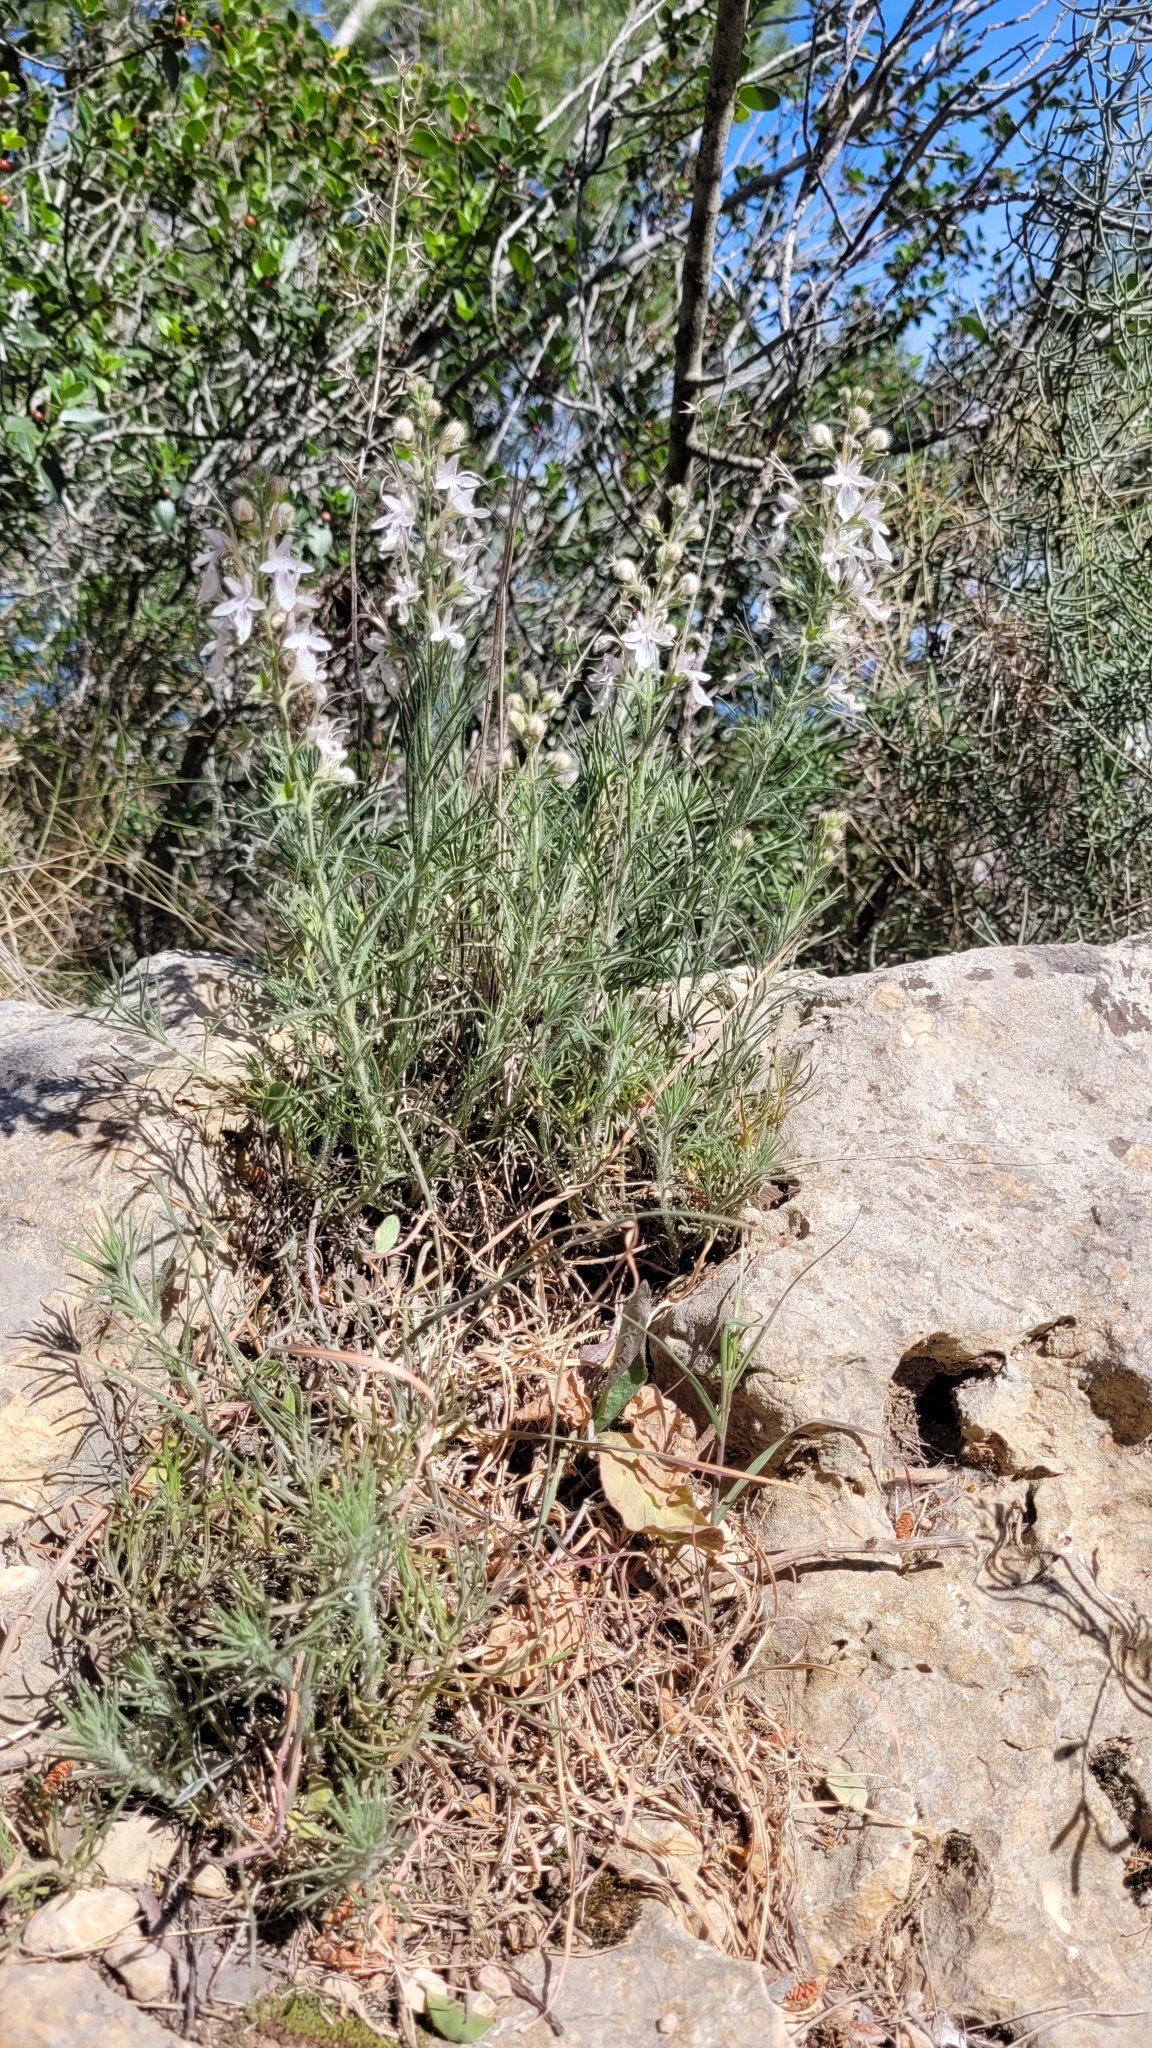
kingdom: Plantae
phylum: Tracheophyta
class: Magnoliopsida
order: Lamiales
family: Lamiaceae
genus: Teucrium
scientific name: Teucrium pseudochamaepitys
